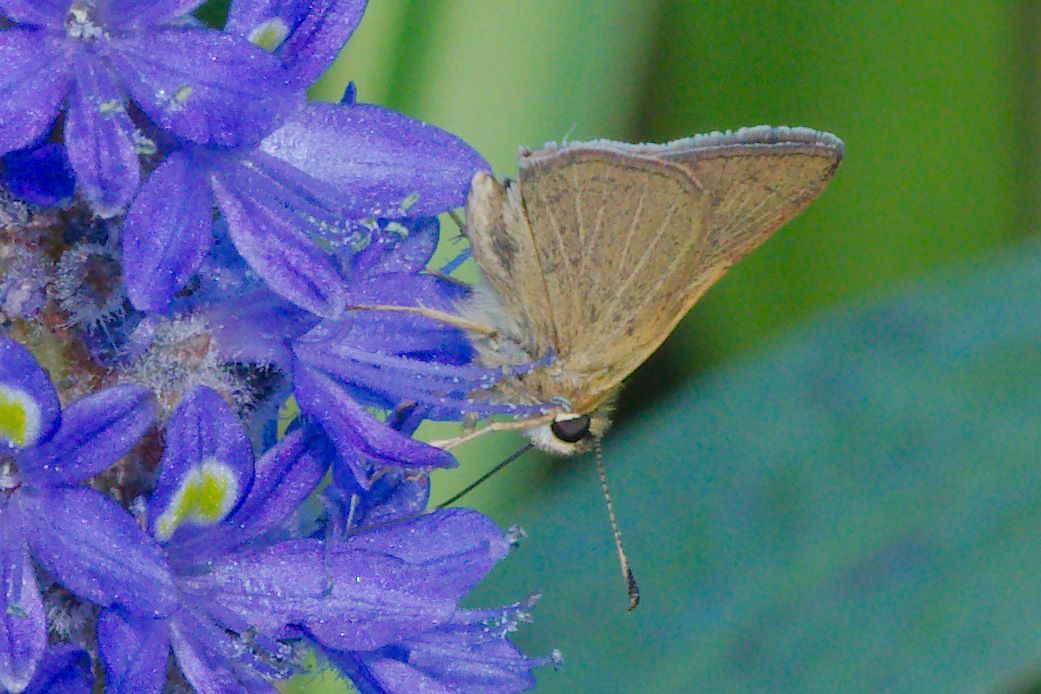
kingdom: Animalia
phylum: Arthropoda
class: Insecta
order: Lepidoptera
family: Hesperiidae
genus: Nastra
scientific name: Nastra lherminier
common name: Swarthy skipper
